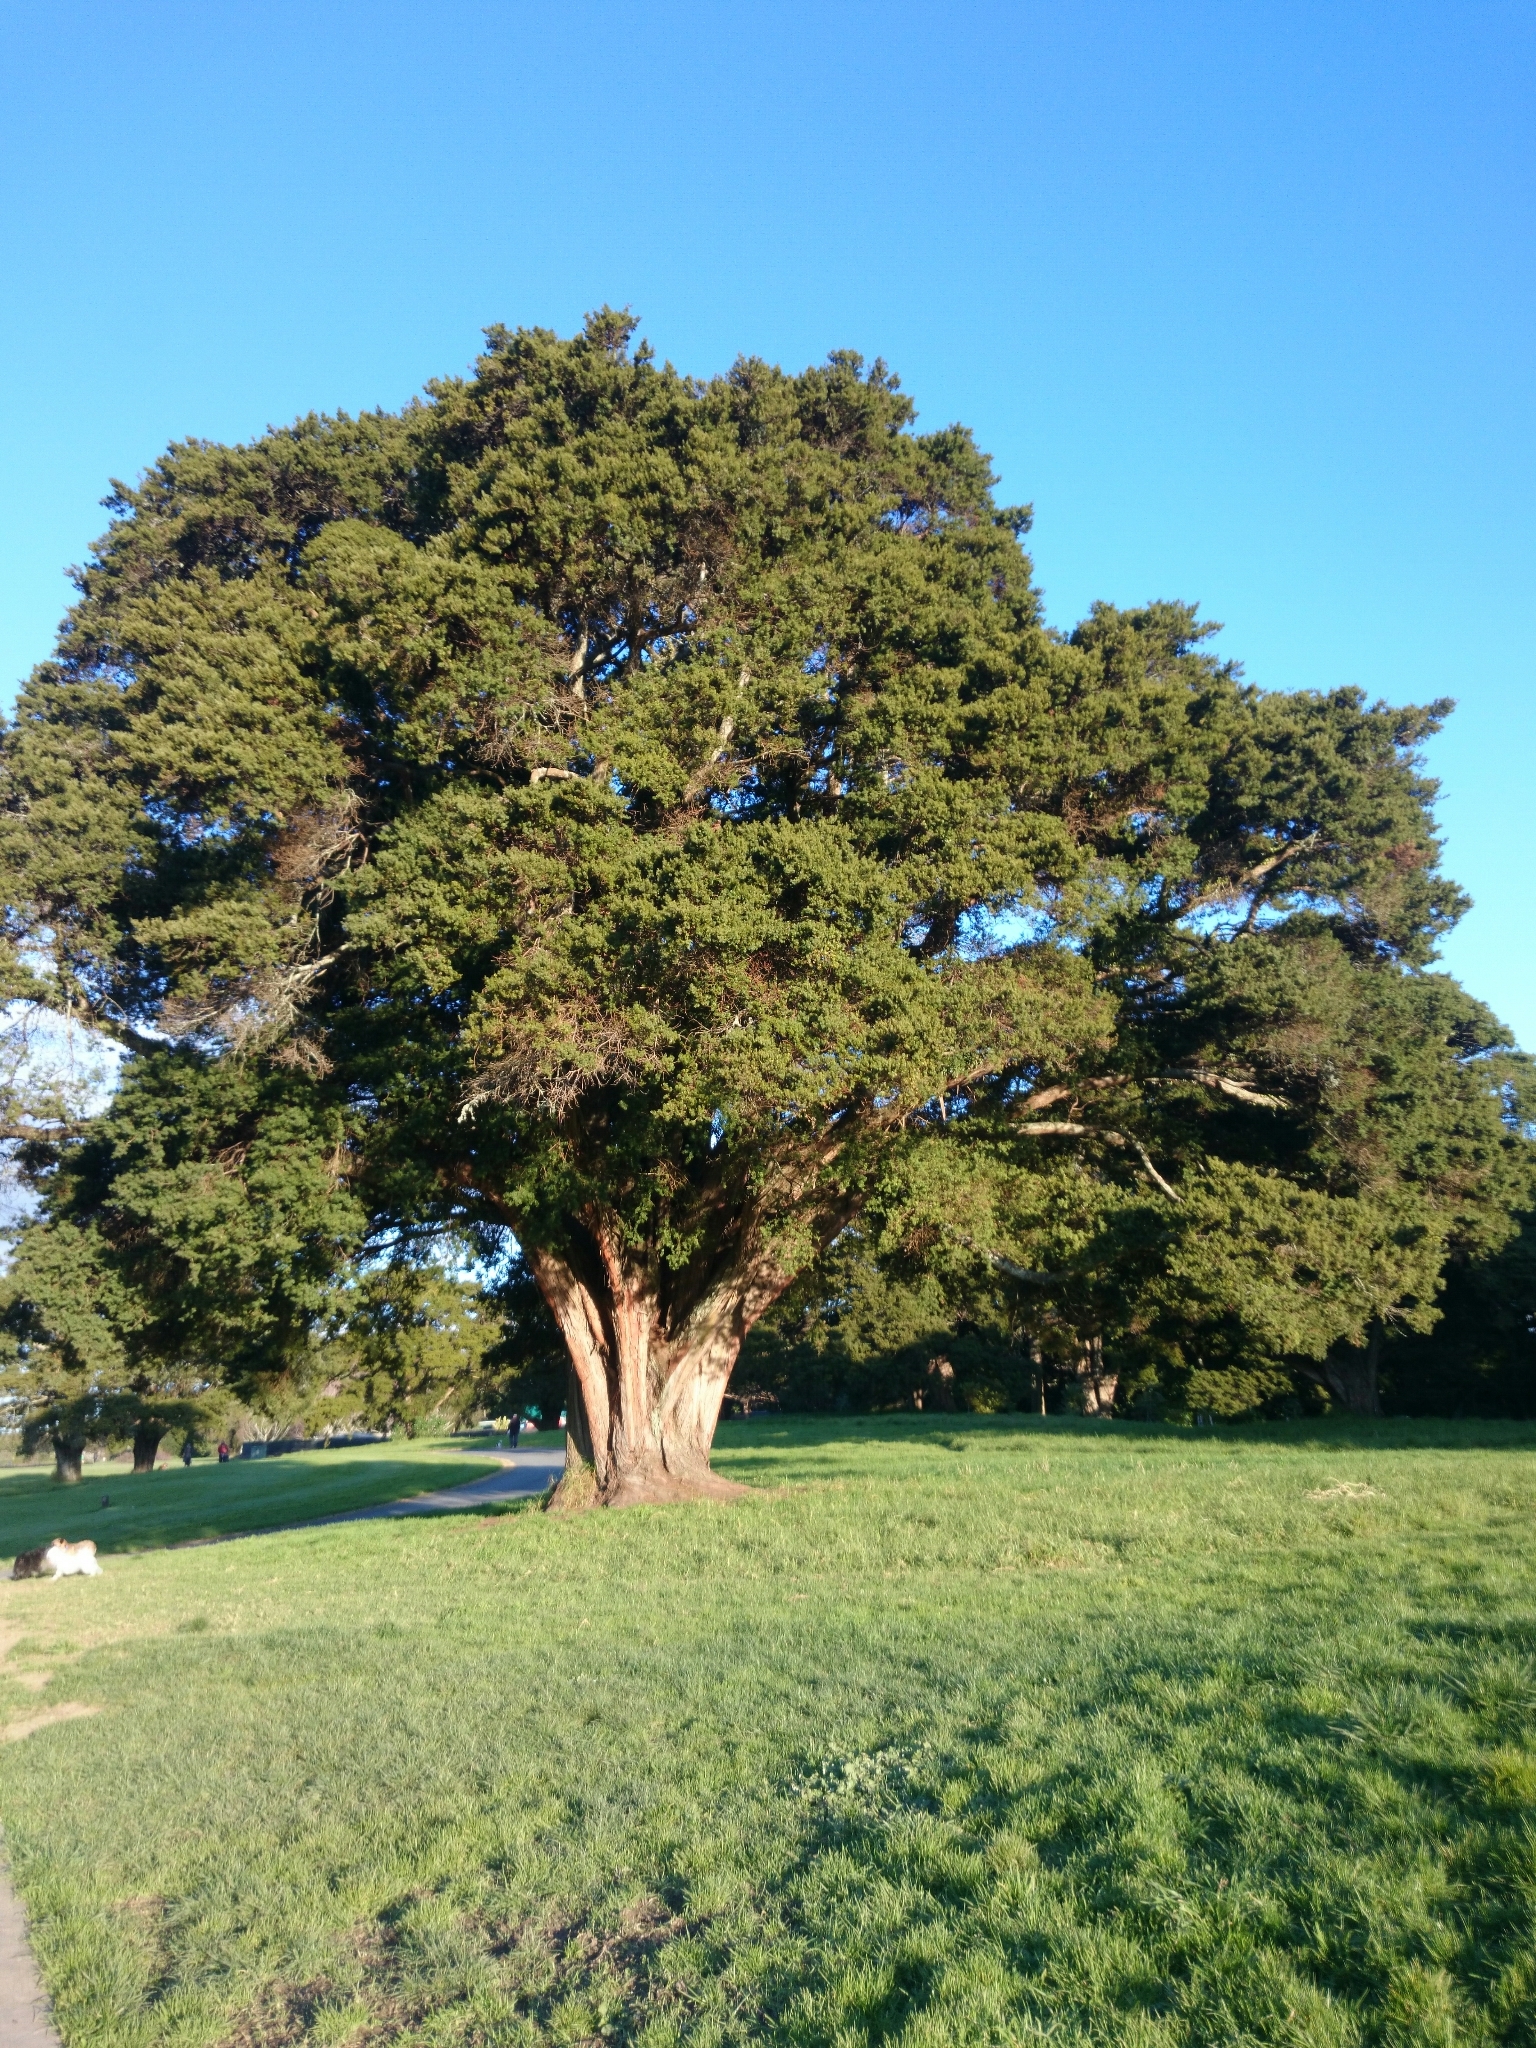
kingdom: Plantae
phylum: Tracheophyta
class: Pinopsida
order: Pinales
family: Podocarpaceae
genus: Podocarpus
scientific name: Podocarpus totara
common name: Totara
